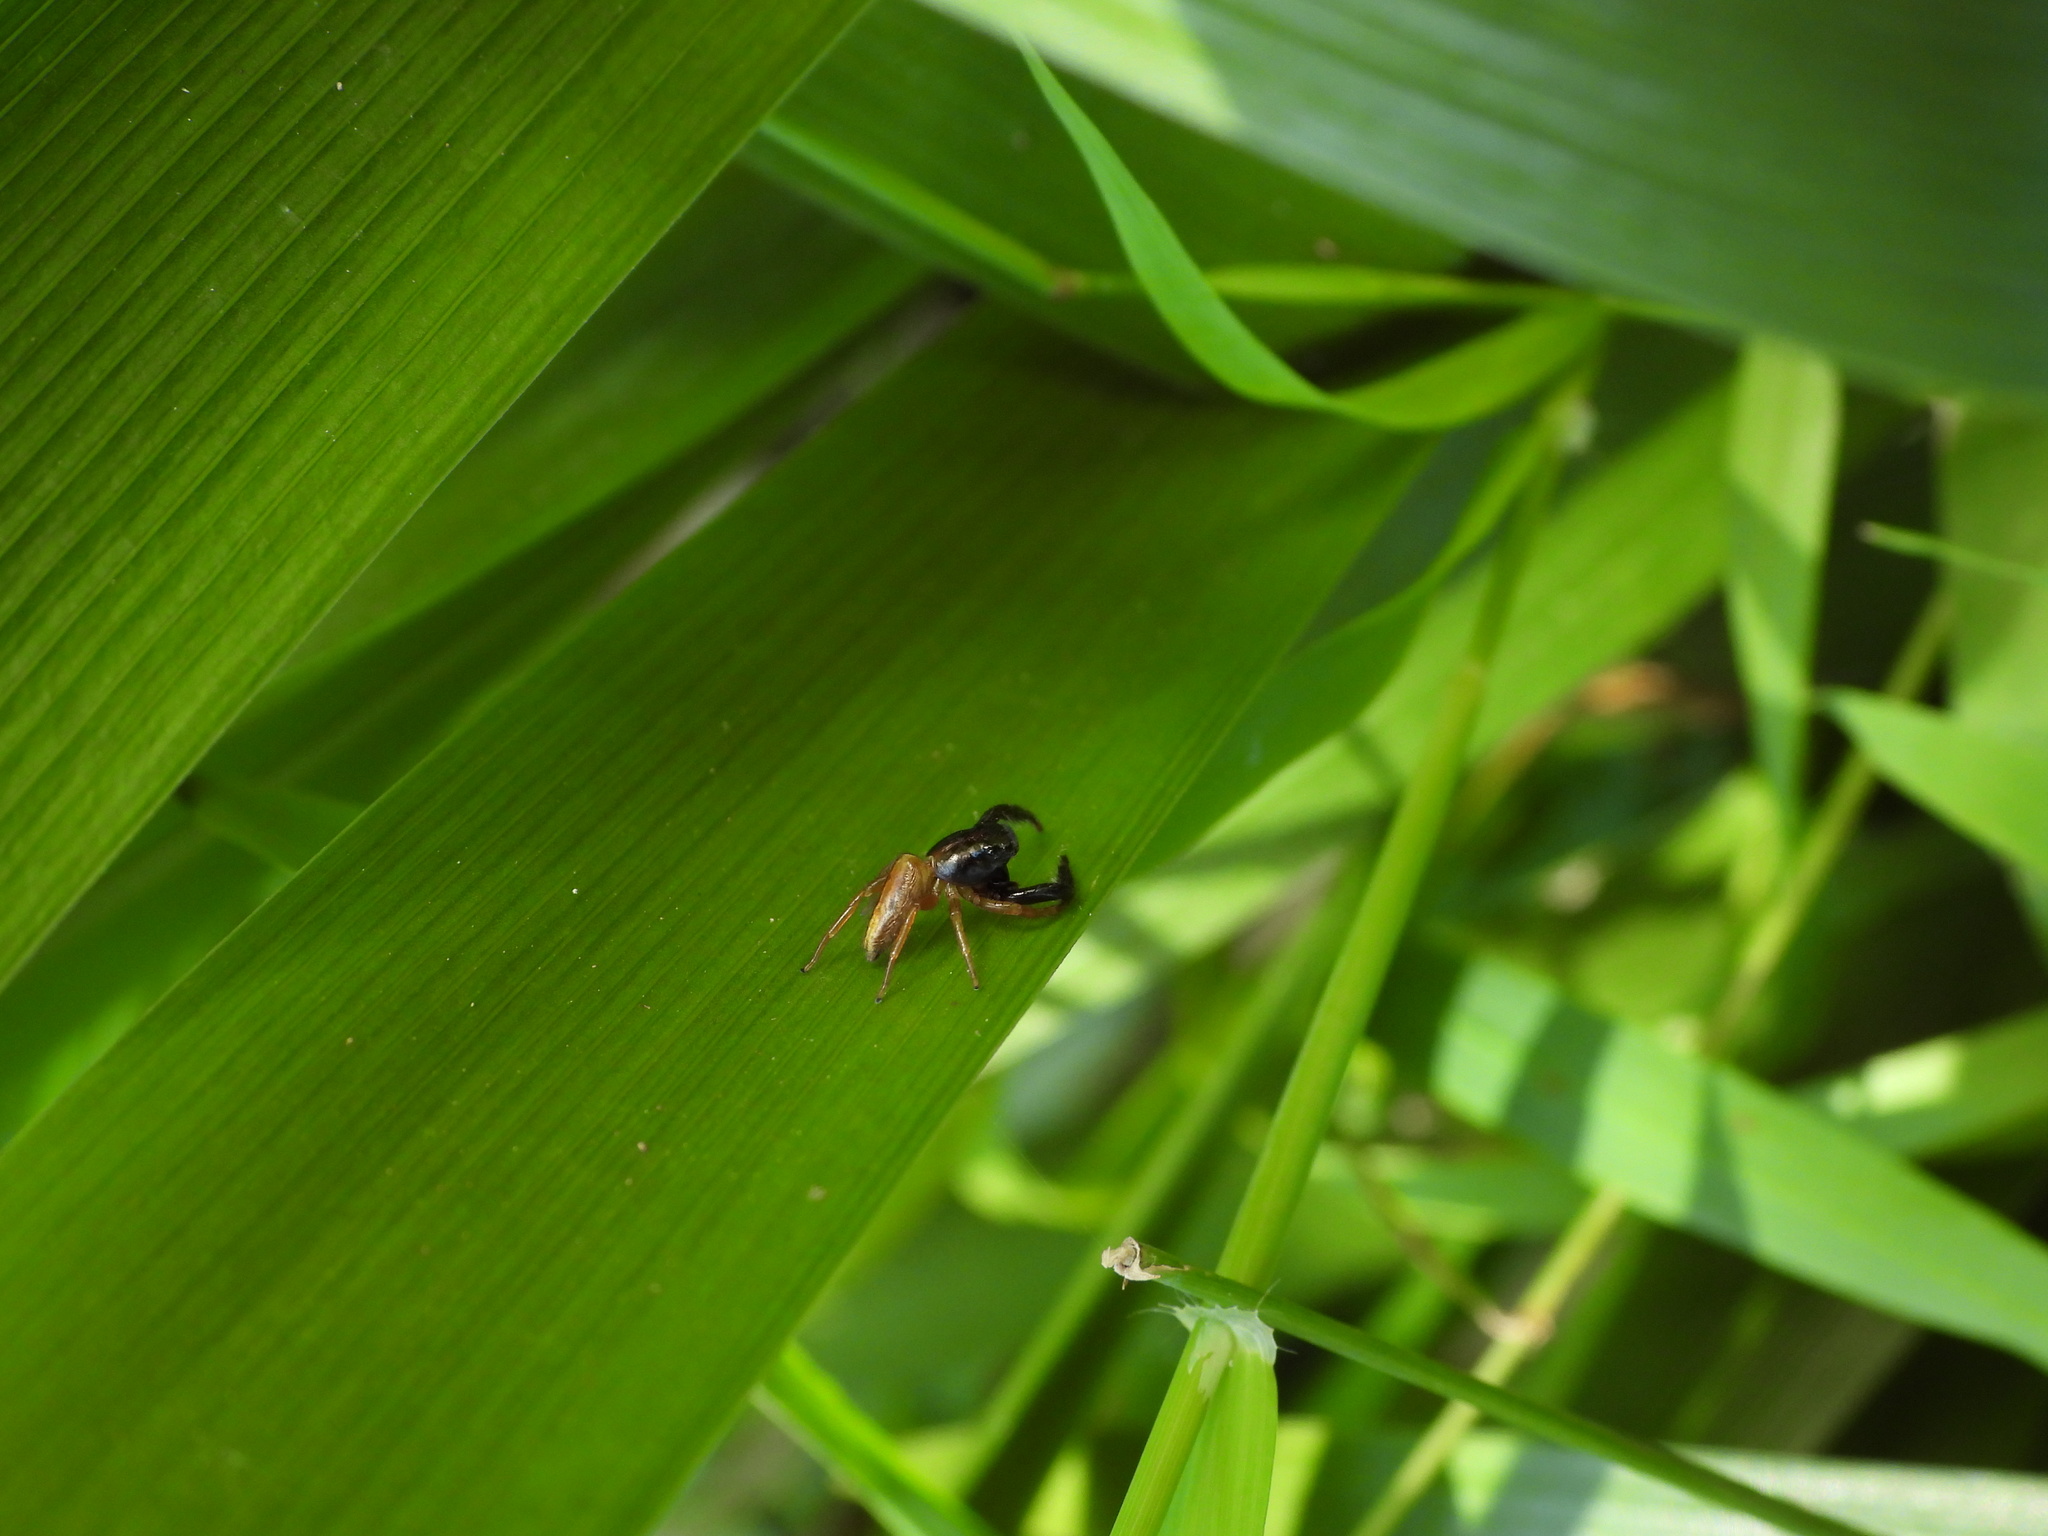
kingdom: Animalia
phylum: Arthropoda
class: Arachnida
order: Araneae
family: Salticidae
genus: Trite
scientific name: Trite planiceps
